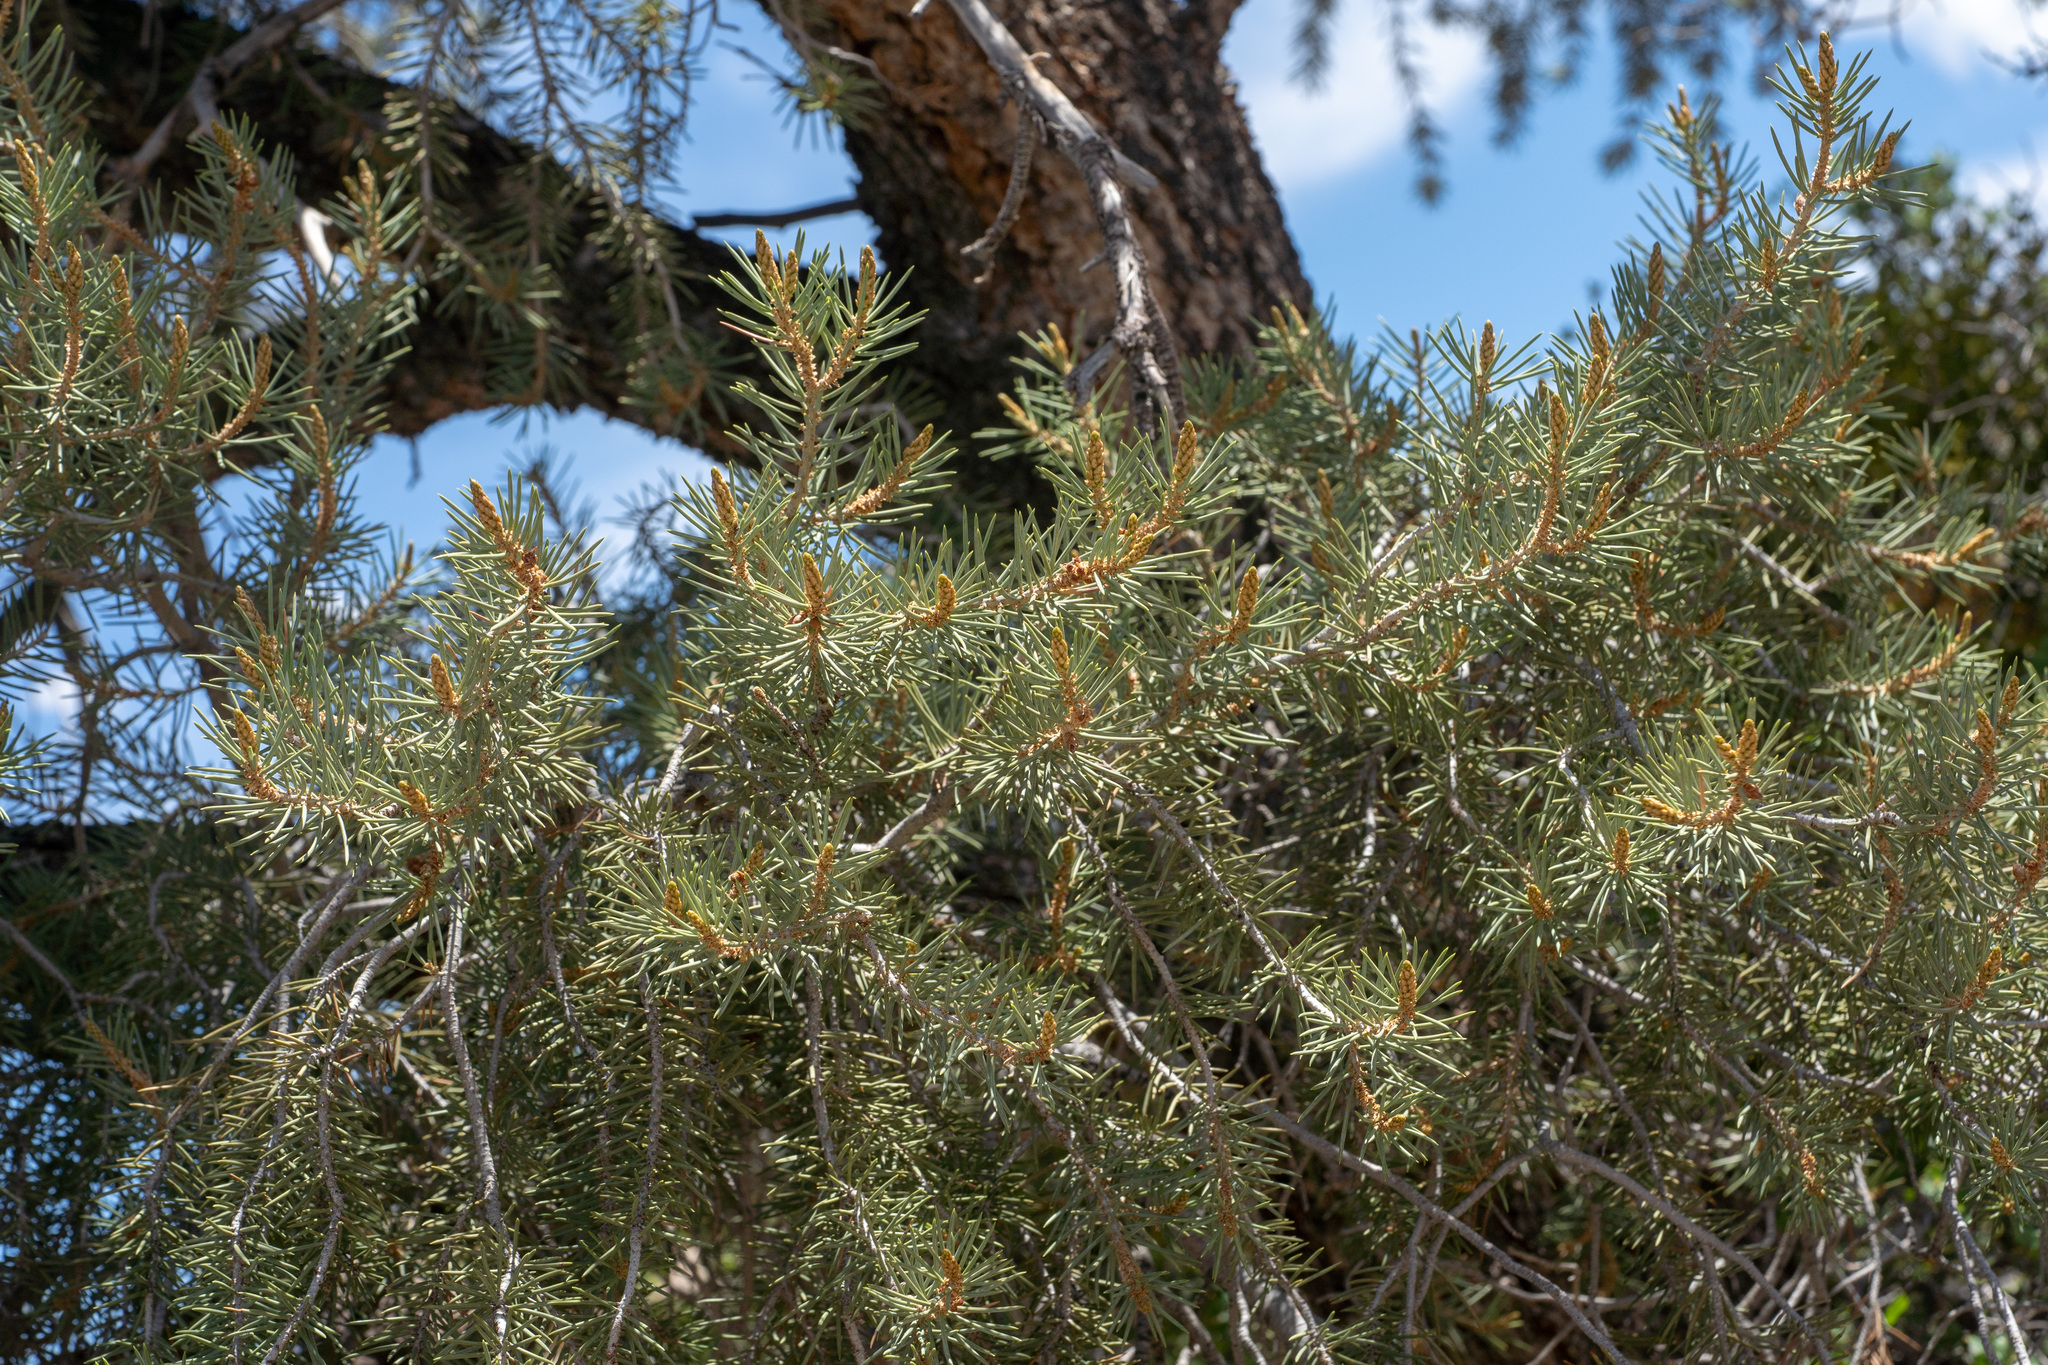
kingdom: Plantae
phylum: Tracheophyta
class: Pinopsida
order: Pinales
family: Pinaceae
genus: Pinus
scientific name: Pinus monophylla
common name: One-leaved nut pine
